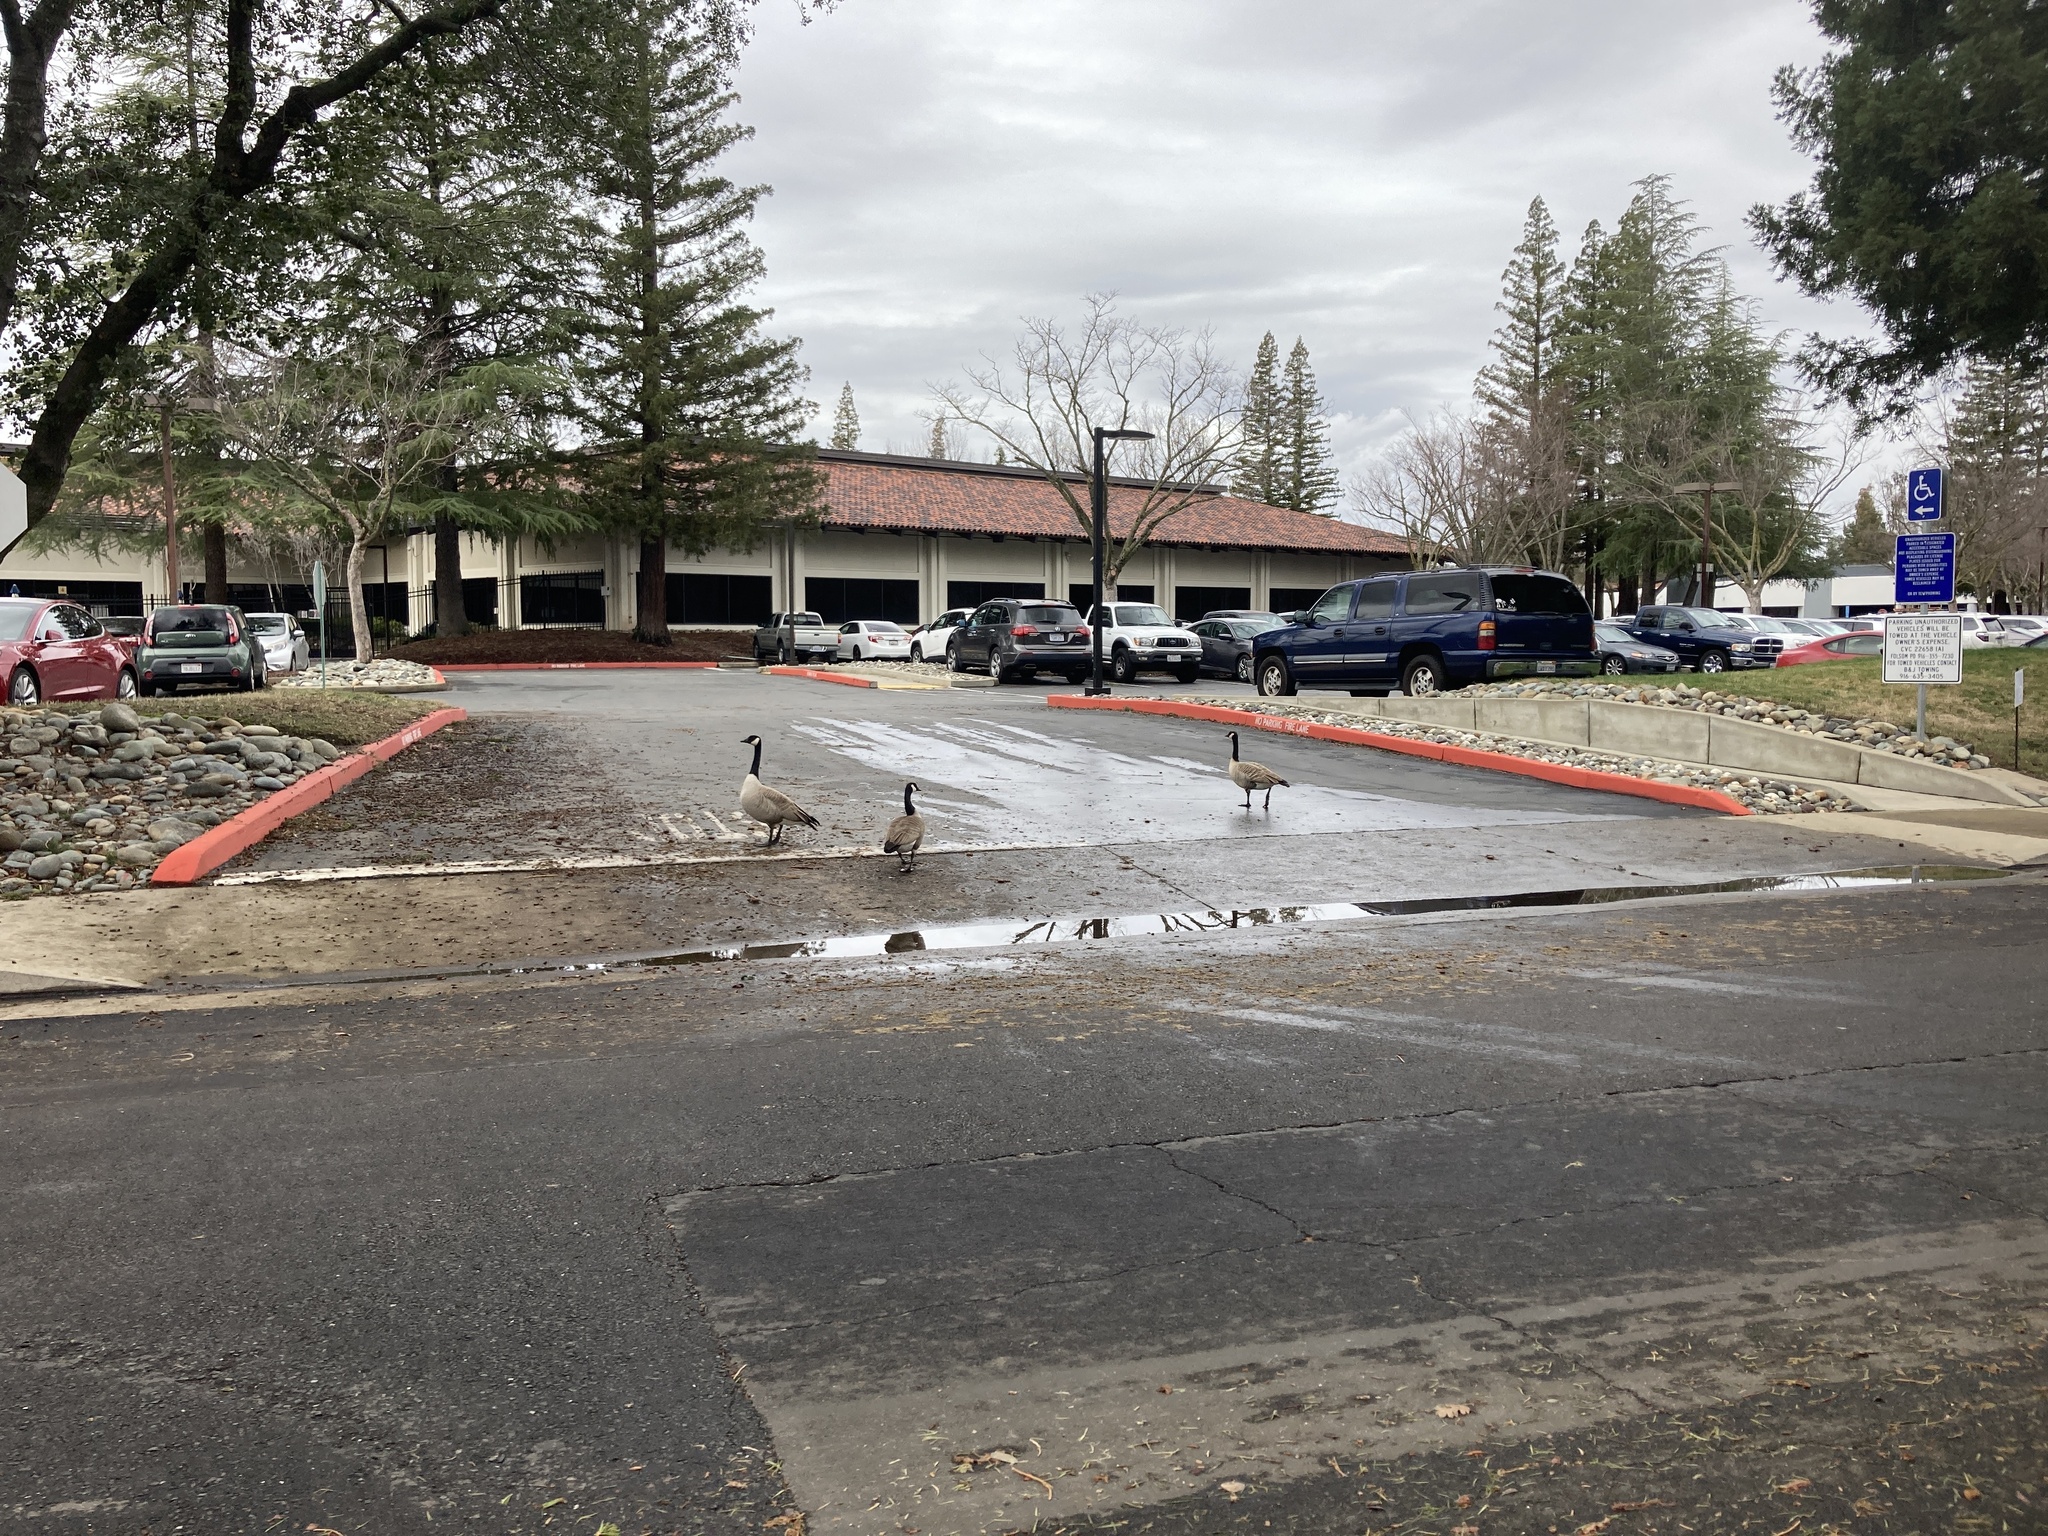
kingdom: Animalia
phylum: Chordata
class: Aves
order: Anseriformes
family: Anatidae
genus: Branta
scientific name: Branta canadensis
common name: Canada goose
